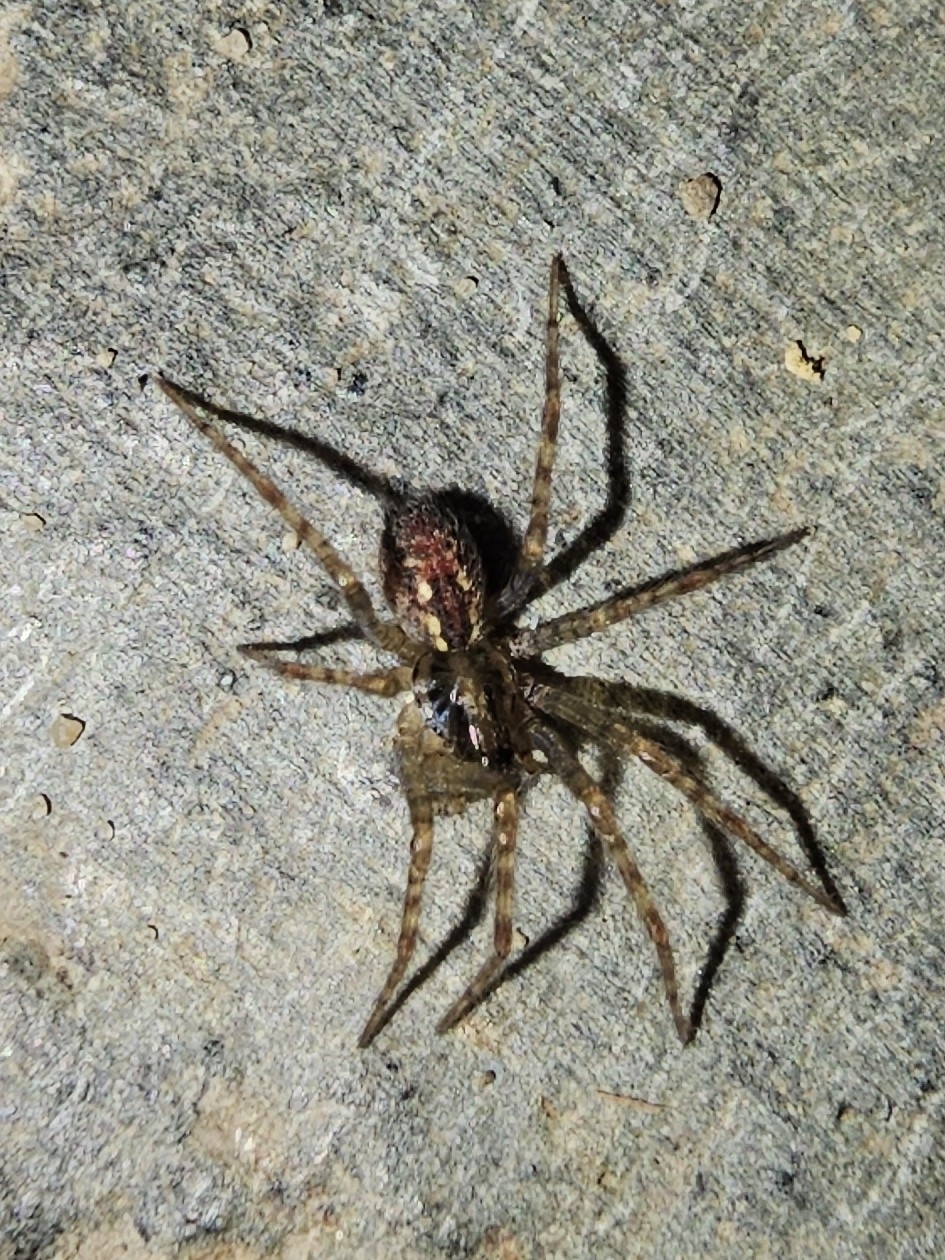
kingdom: Animalia
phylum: Arthropoda
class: Arachnida
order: Araneae
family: Agelenidae
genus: Tegenaria
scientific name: Tegenaria ferruginea
